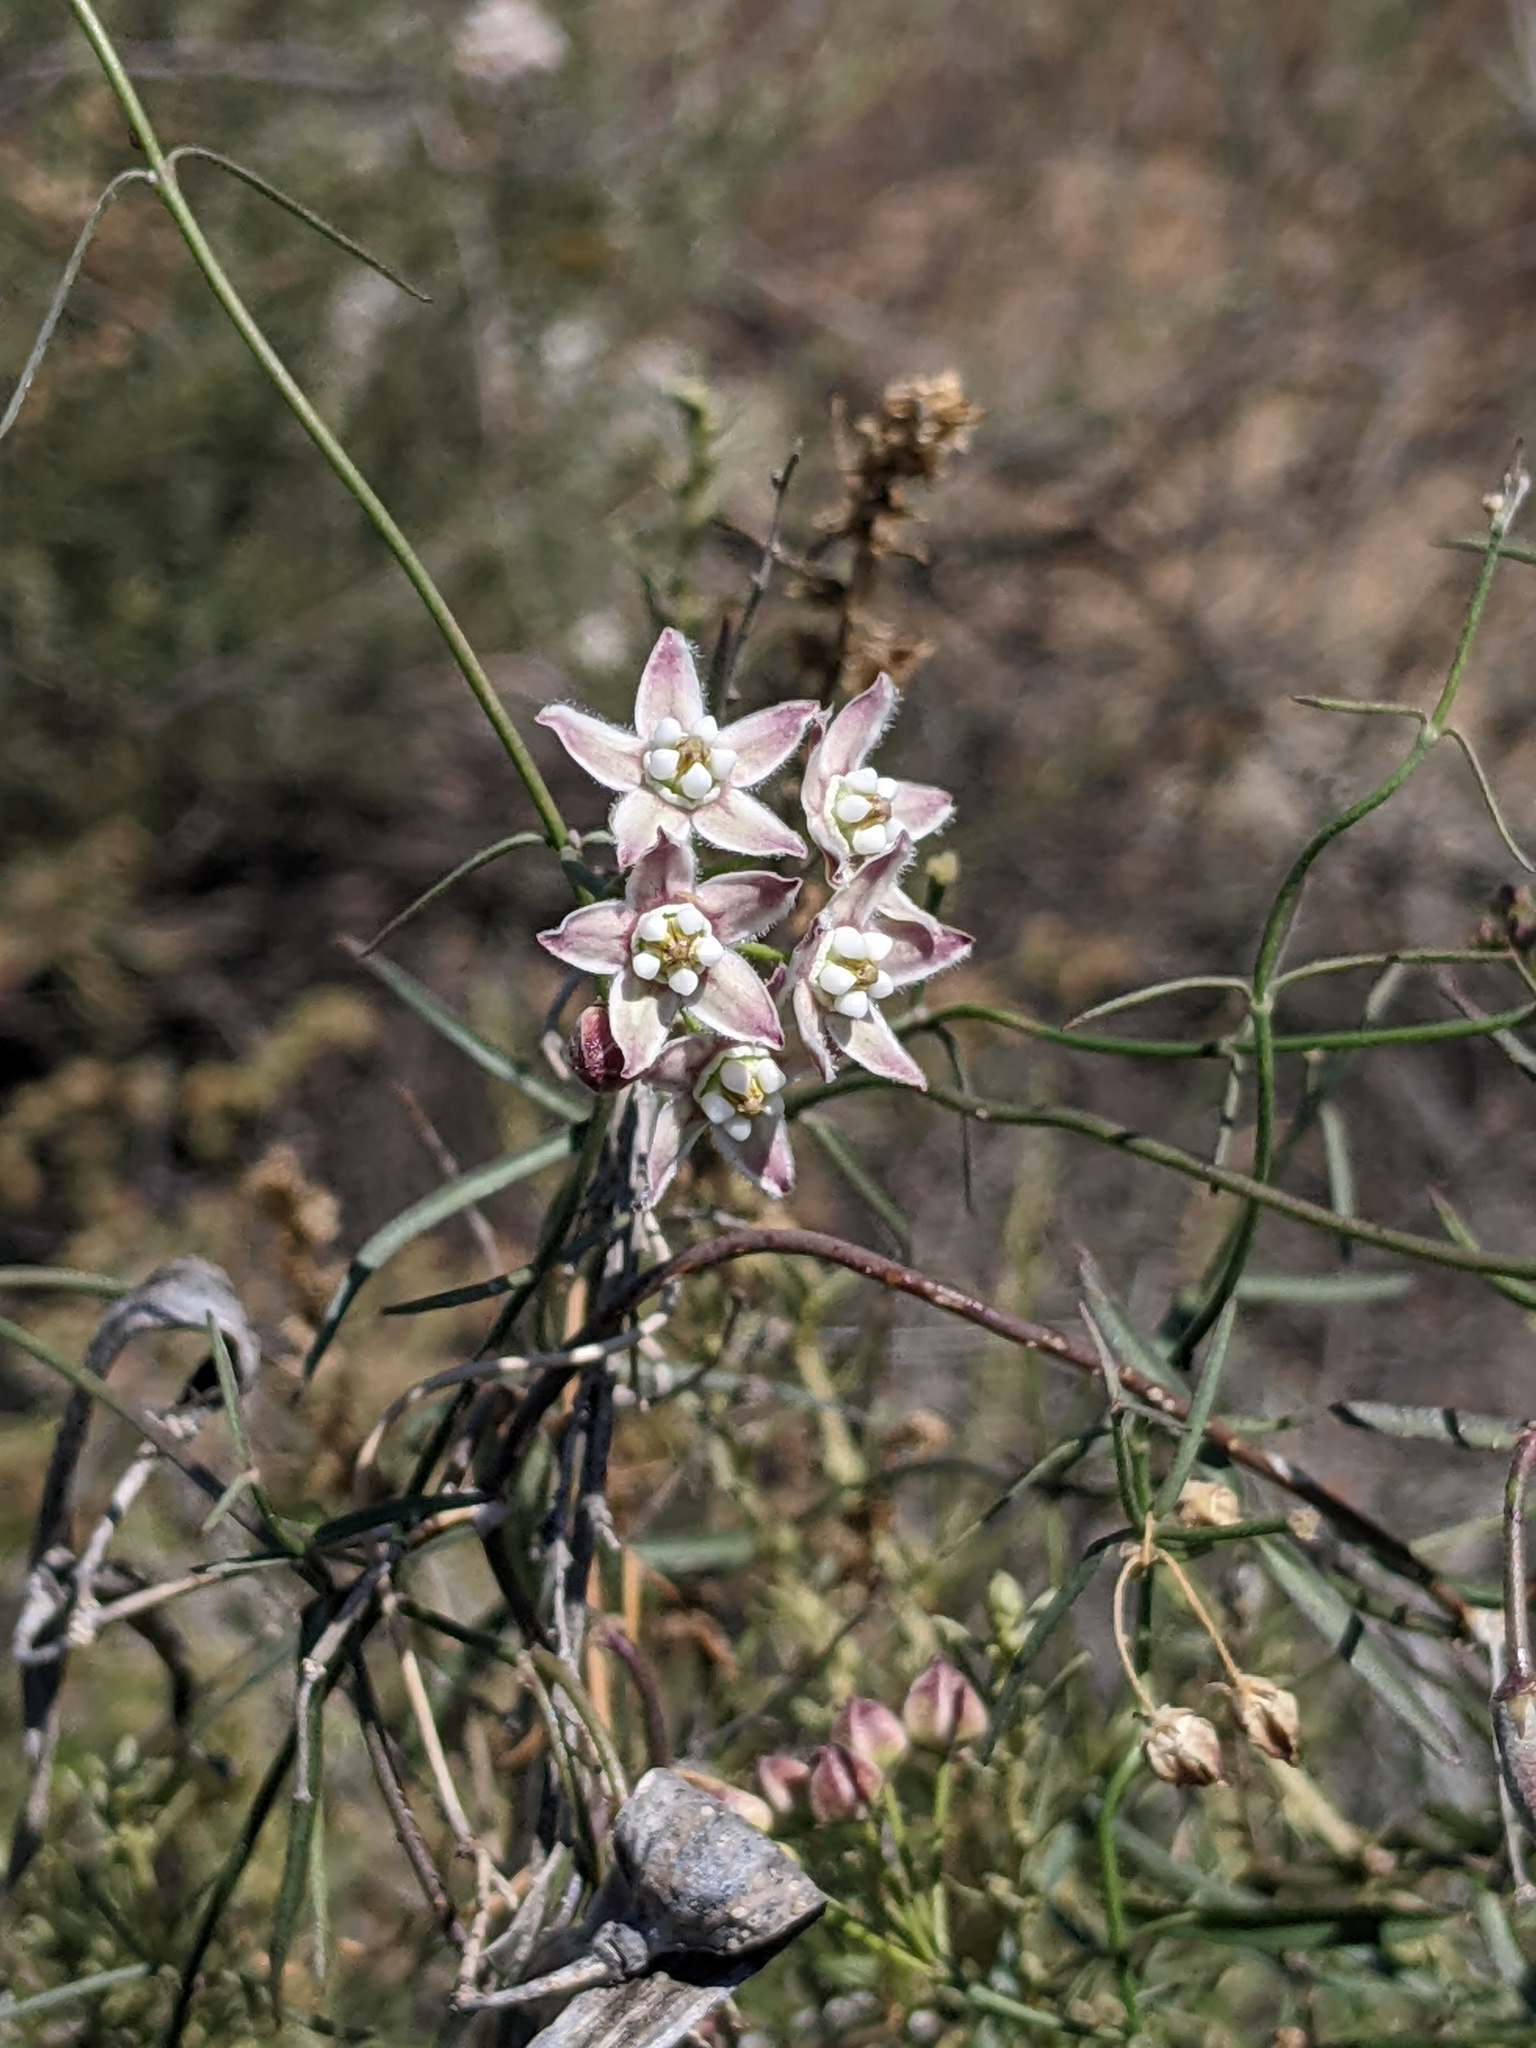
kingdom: Plantae
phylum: Tracheophyta
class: Magnoliopsida
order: Gentianales
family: Apocynaceae
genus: Funastrum
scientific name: Funastrum heterophyllum
